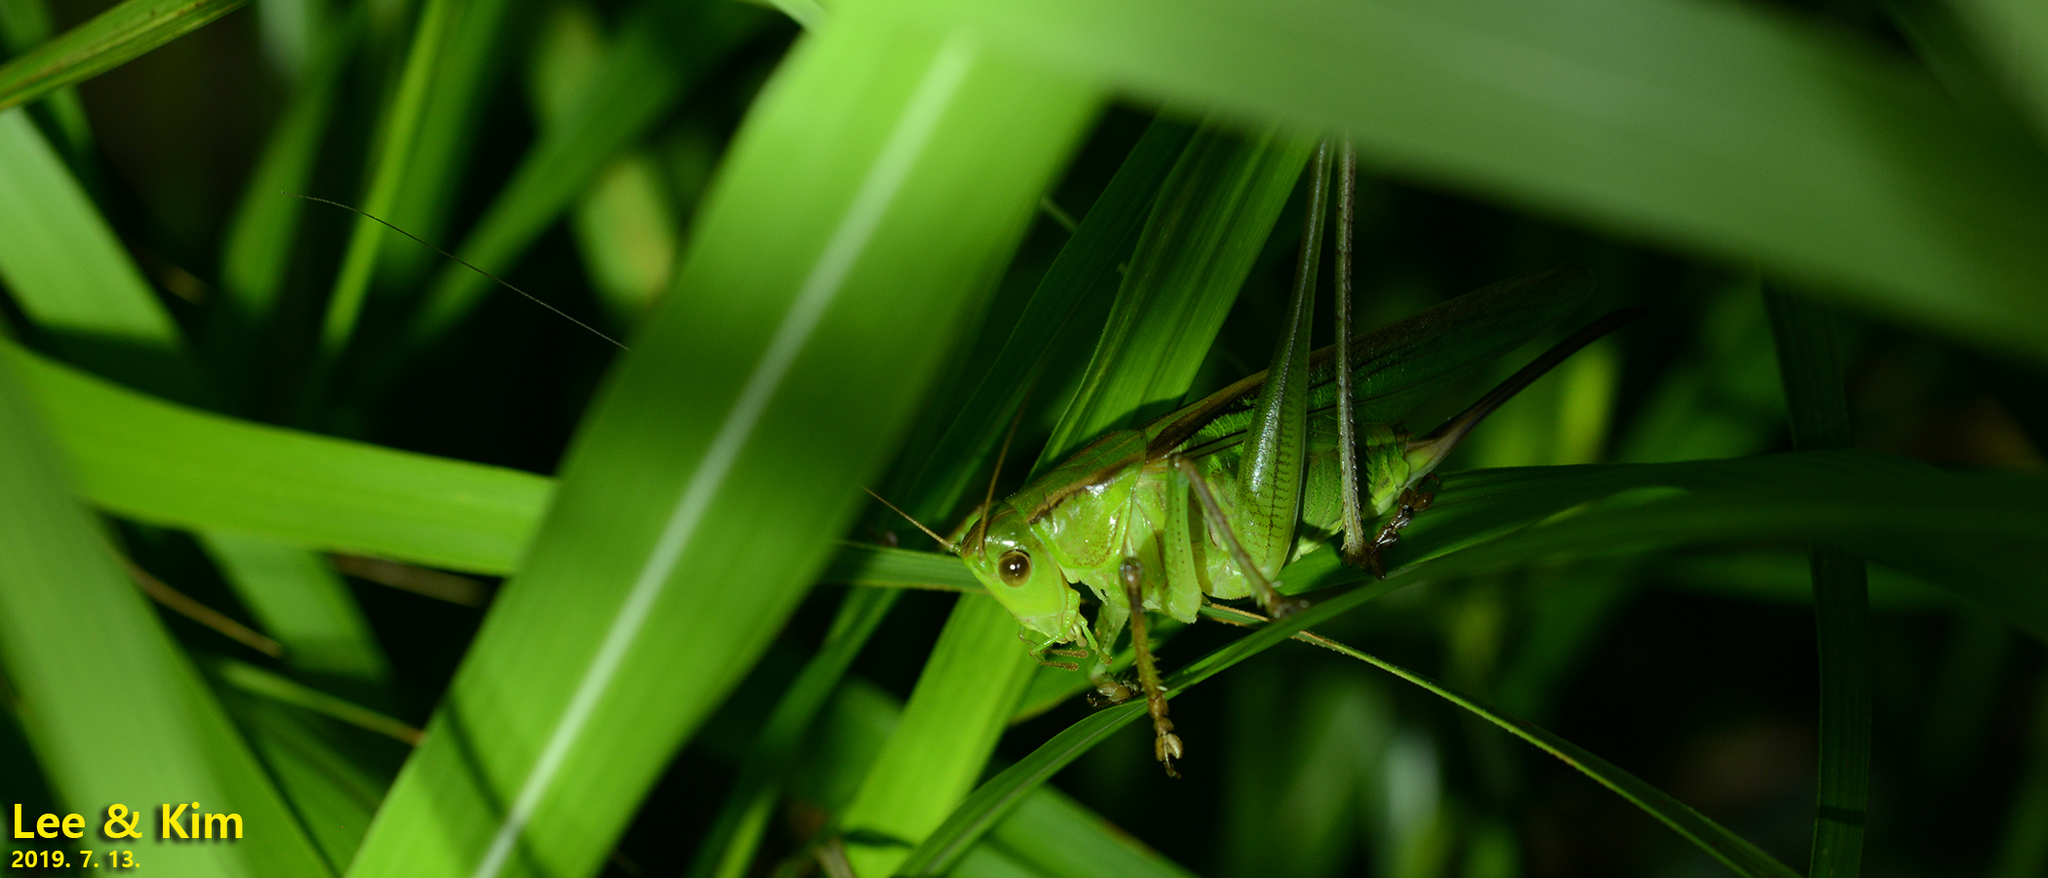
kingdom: Animalia
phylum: Arthropoda
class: Insecta
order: Orthoptera
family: Tettigoniidae
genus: Gampsocleis
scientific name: Gampsocleis ussuriensis
